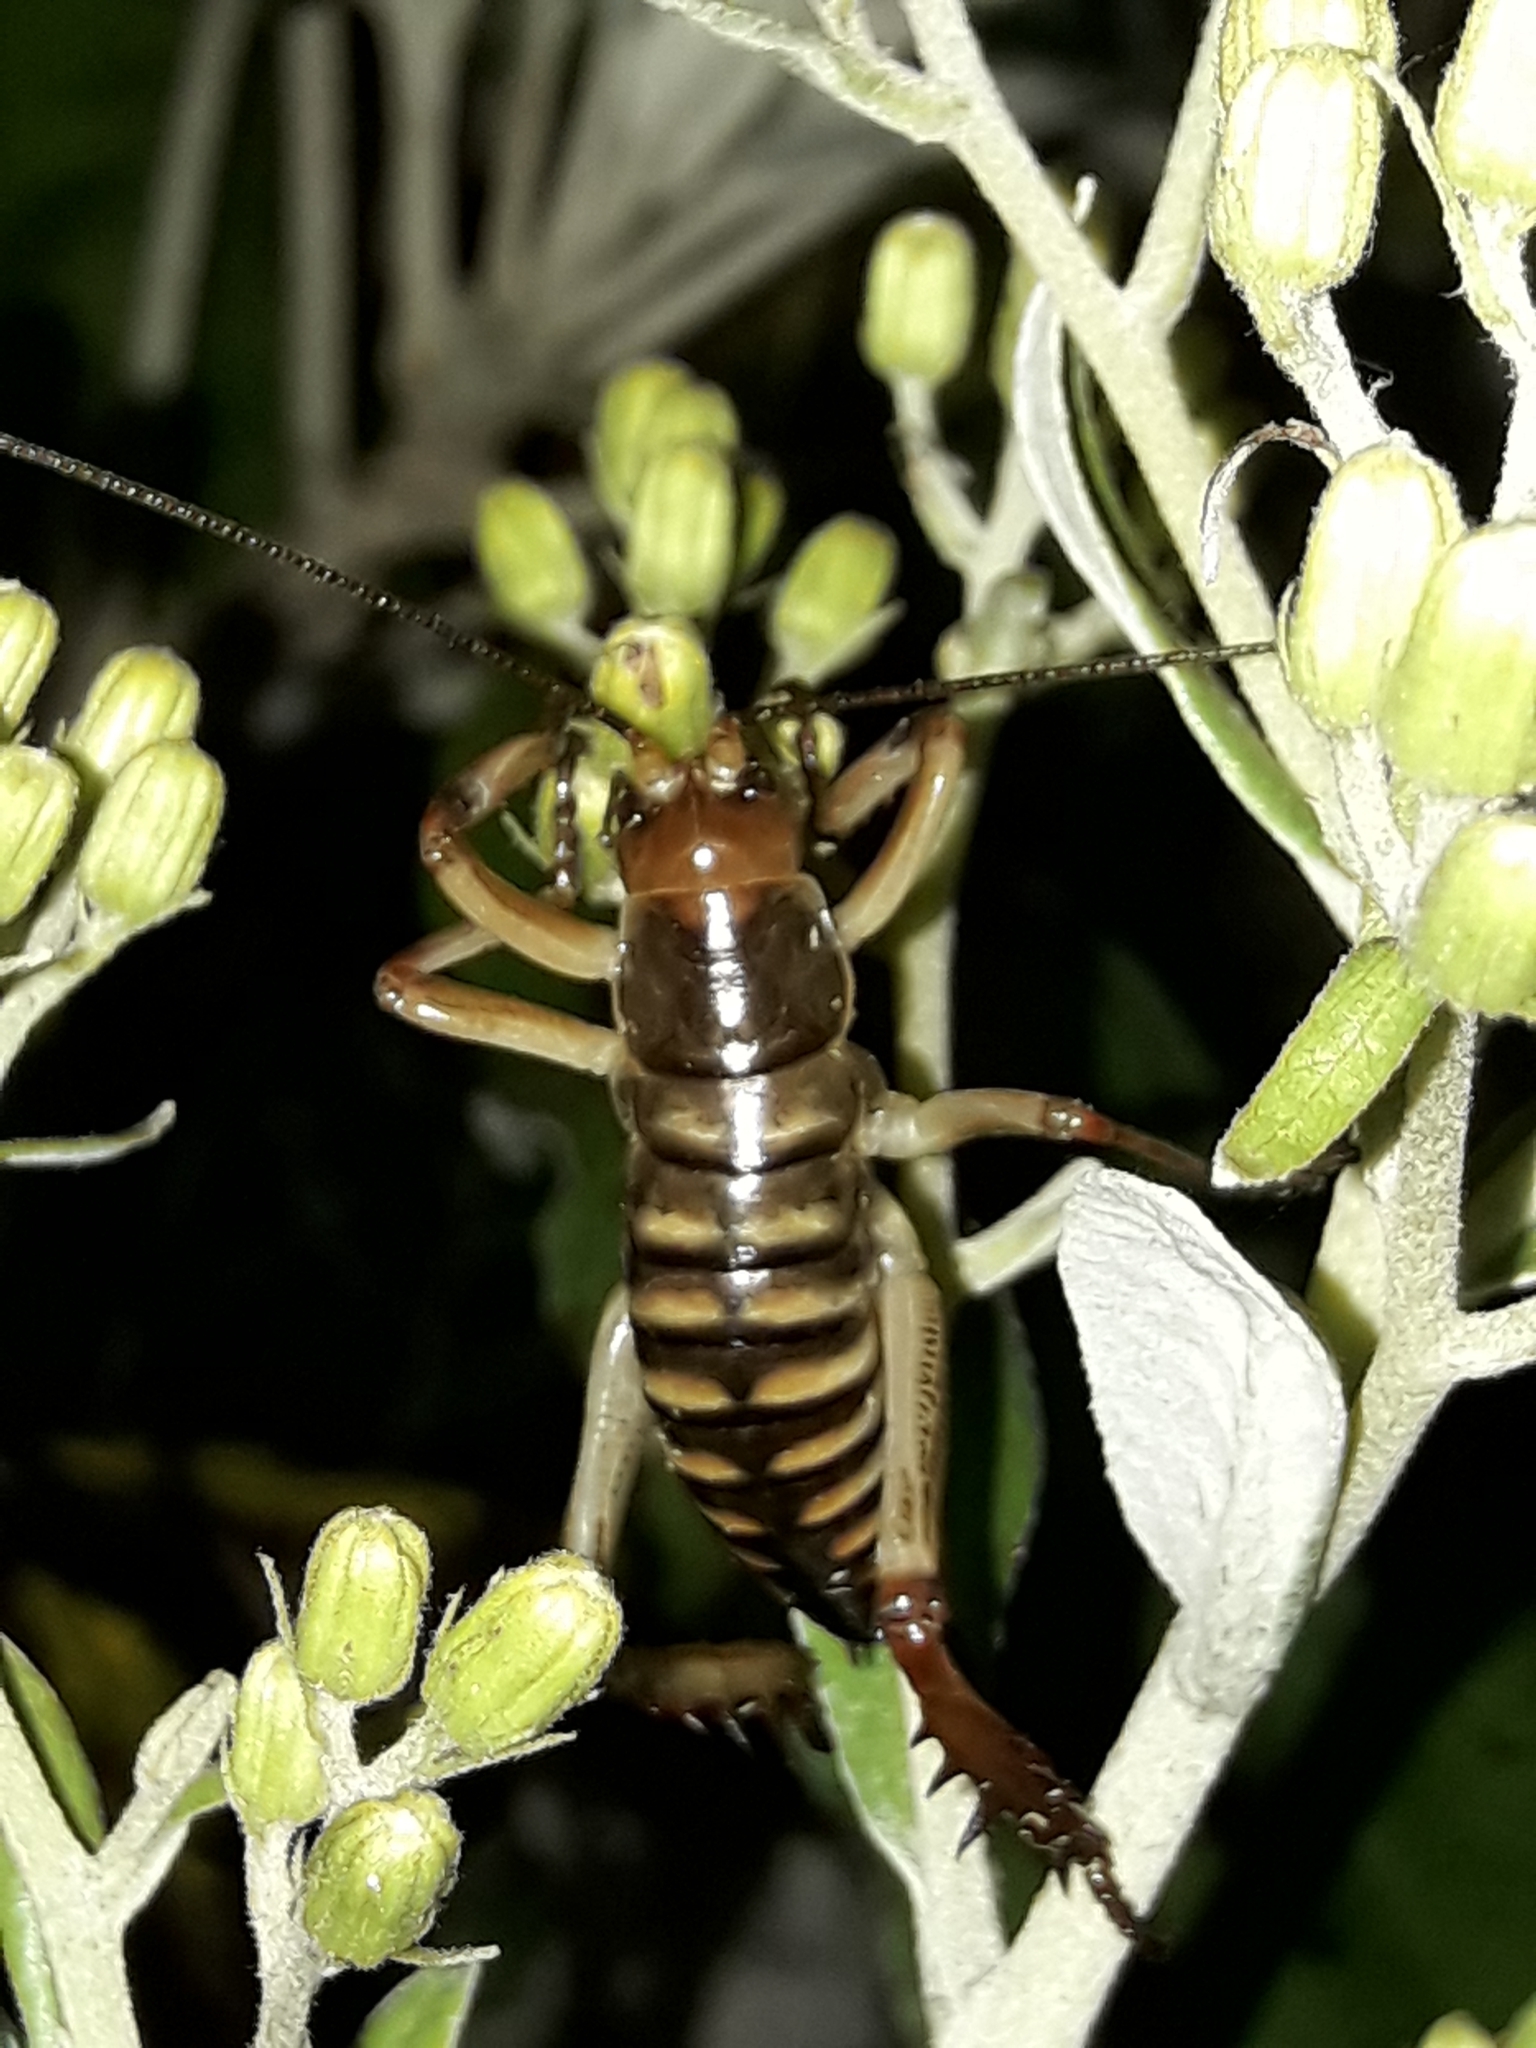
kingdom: Animalia
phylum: Arthropoda
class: Insecta
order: Orthoptera
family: Anostostomatidae
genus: Hemideina
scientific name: Hemideina crassidens
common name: Wellington tree weta
